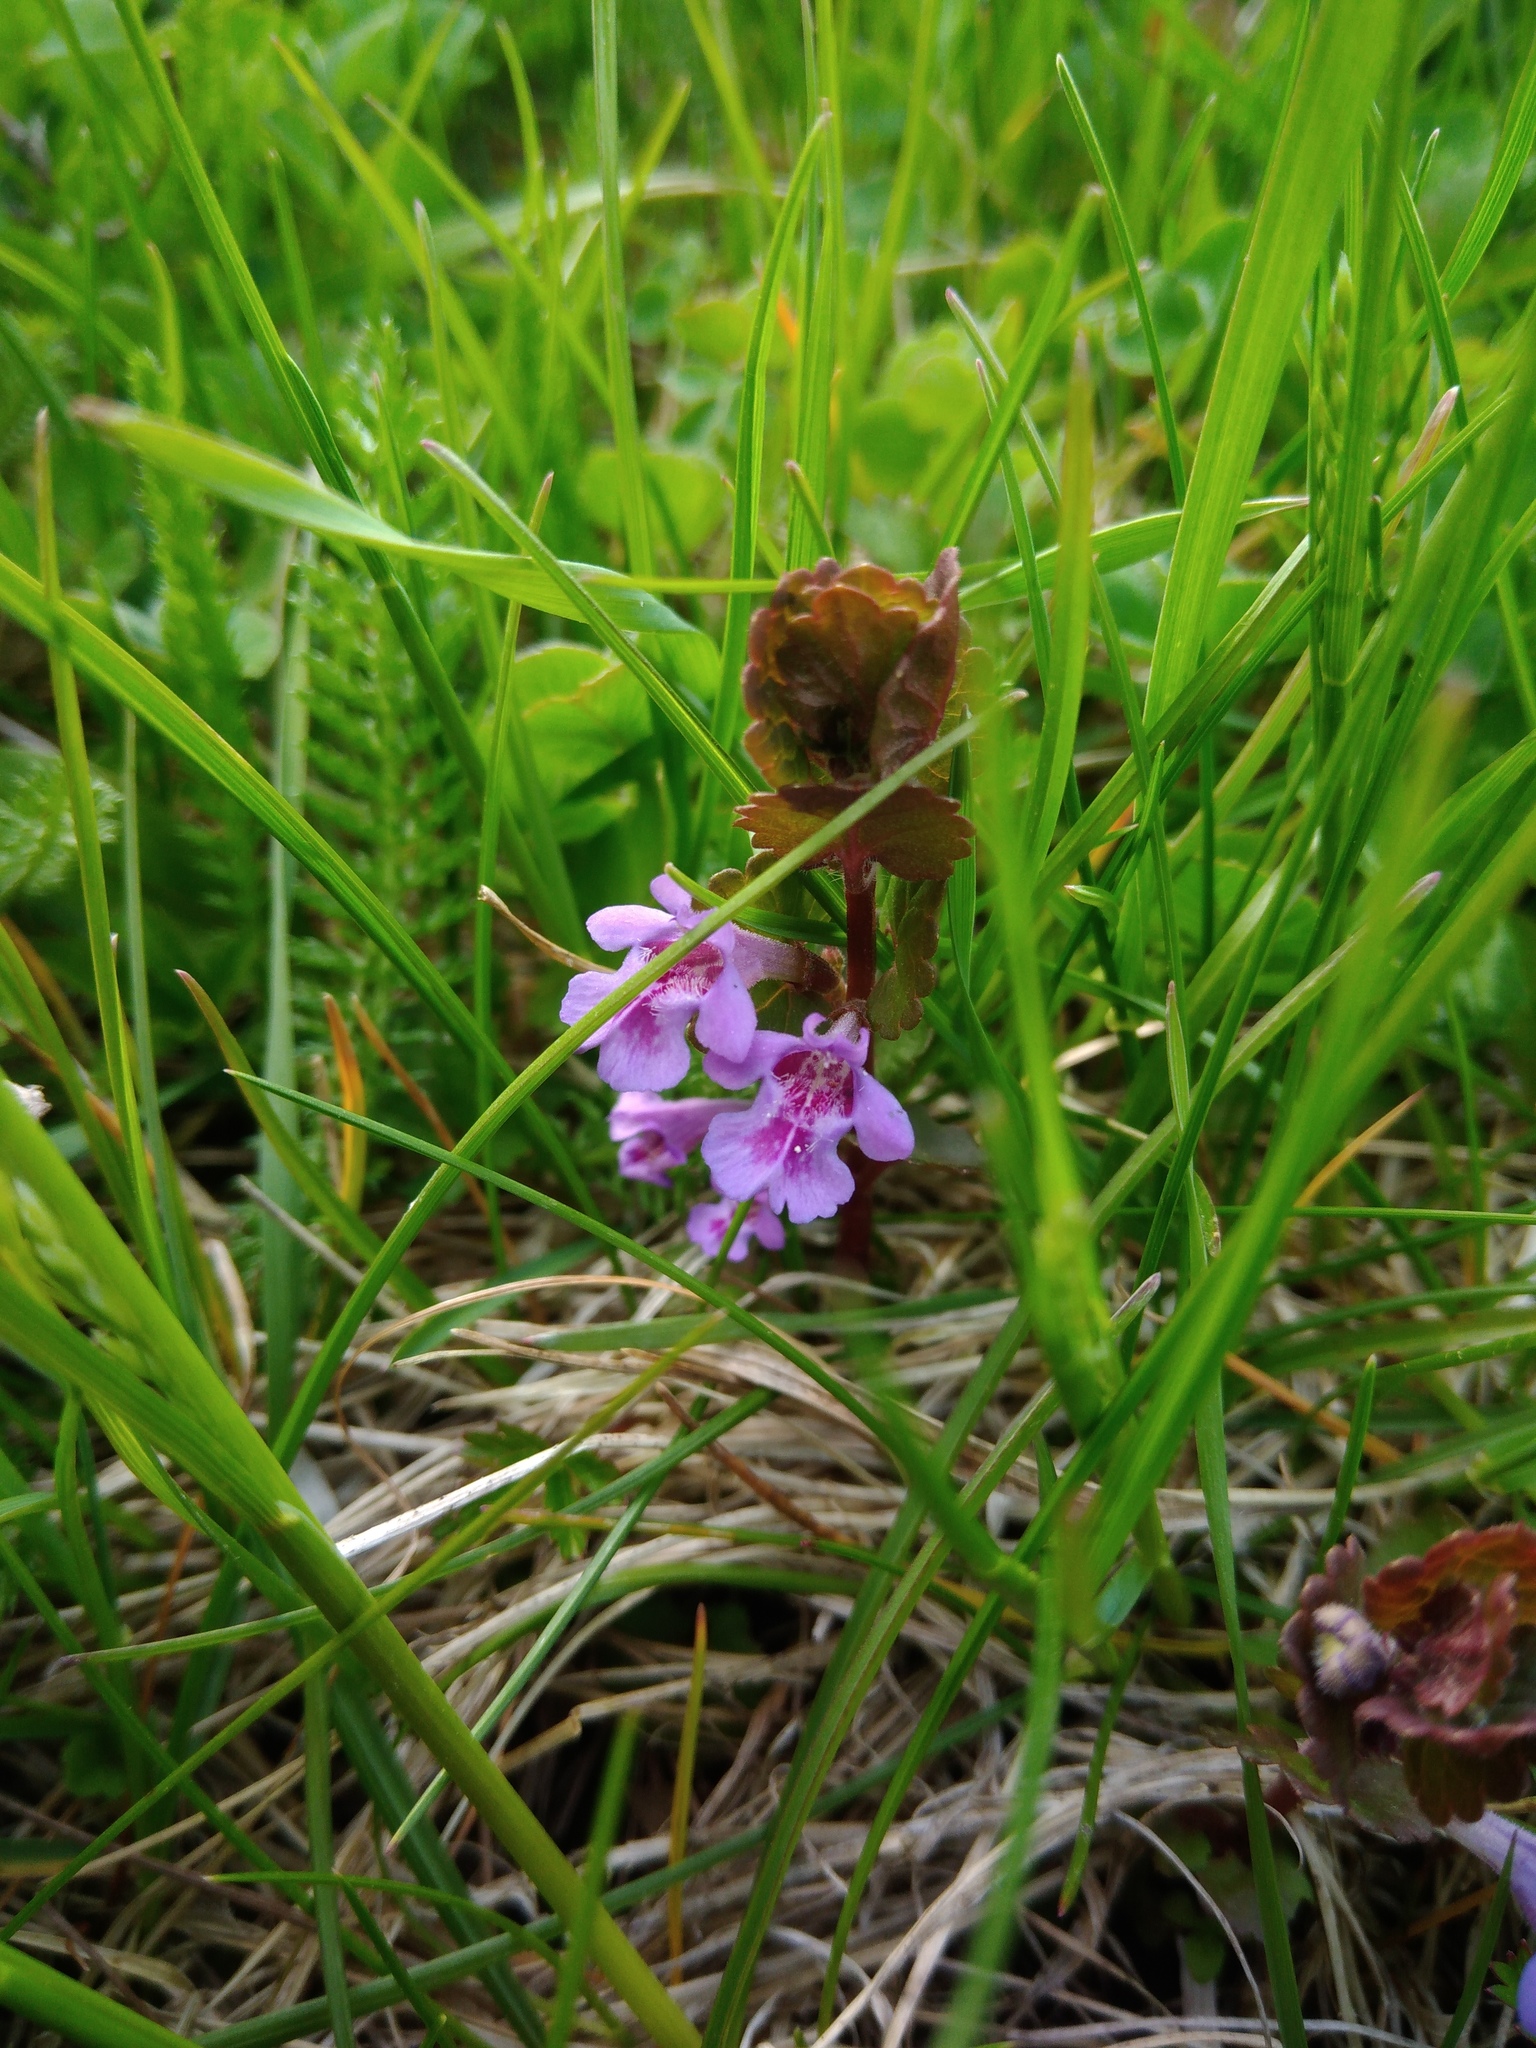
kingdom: Plantae
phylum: Tracheophyta
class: Magnoliopsida
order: Lamiales
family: Lamiaceae
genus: Glechoma
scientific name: Glechoma hederacea
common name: Ground ivy
